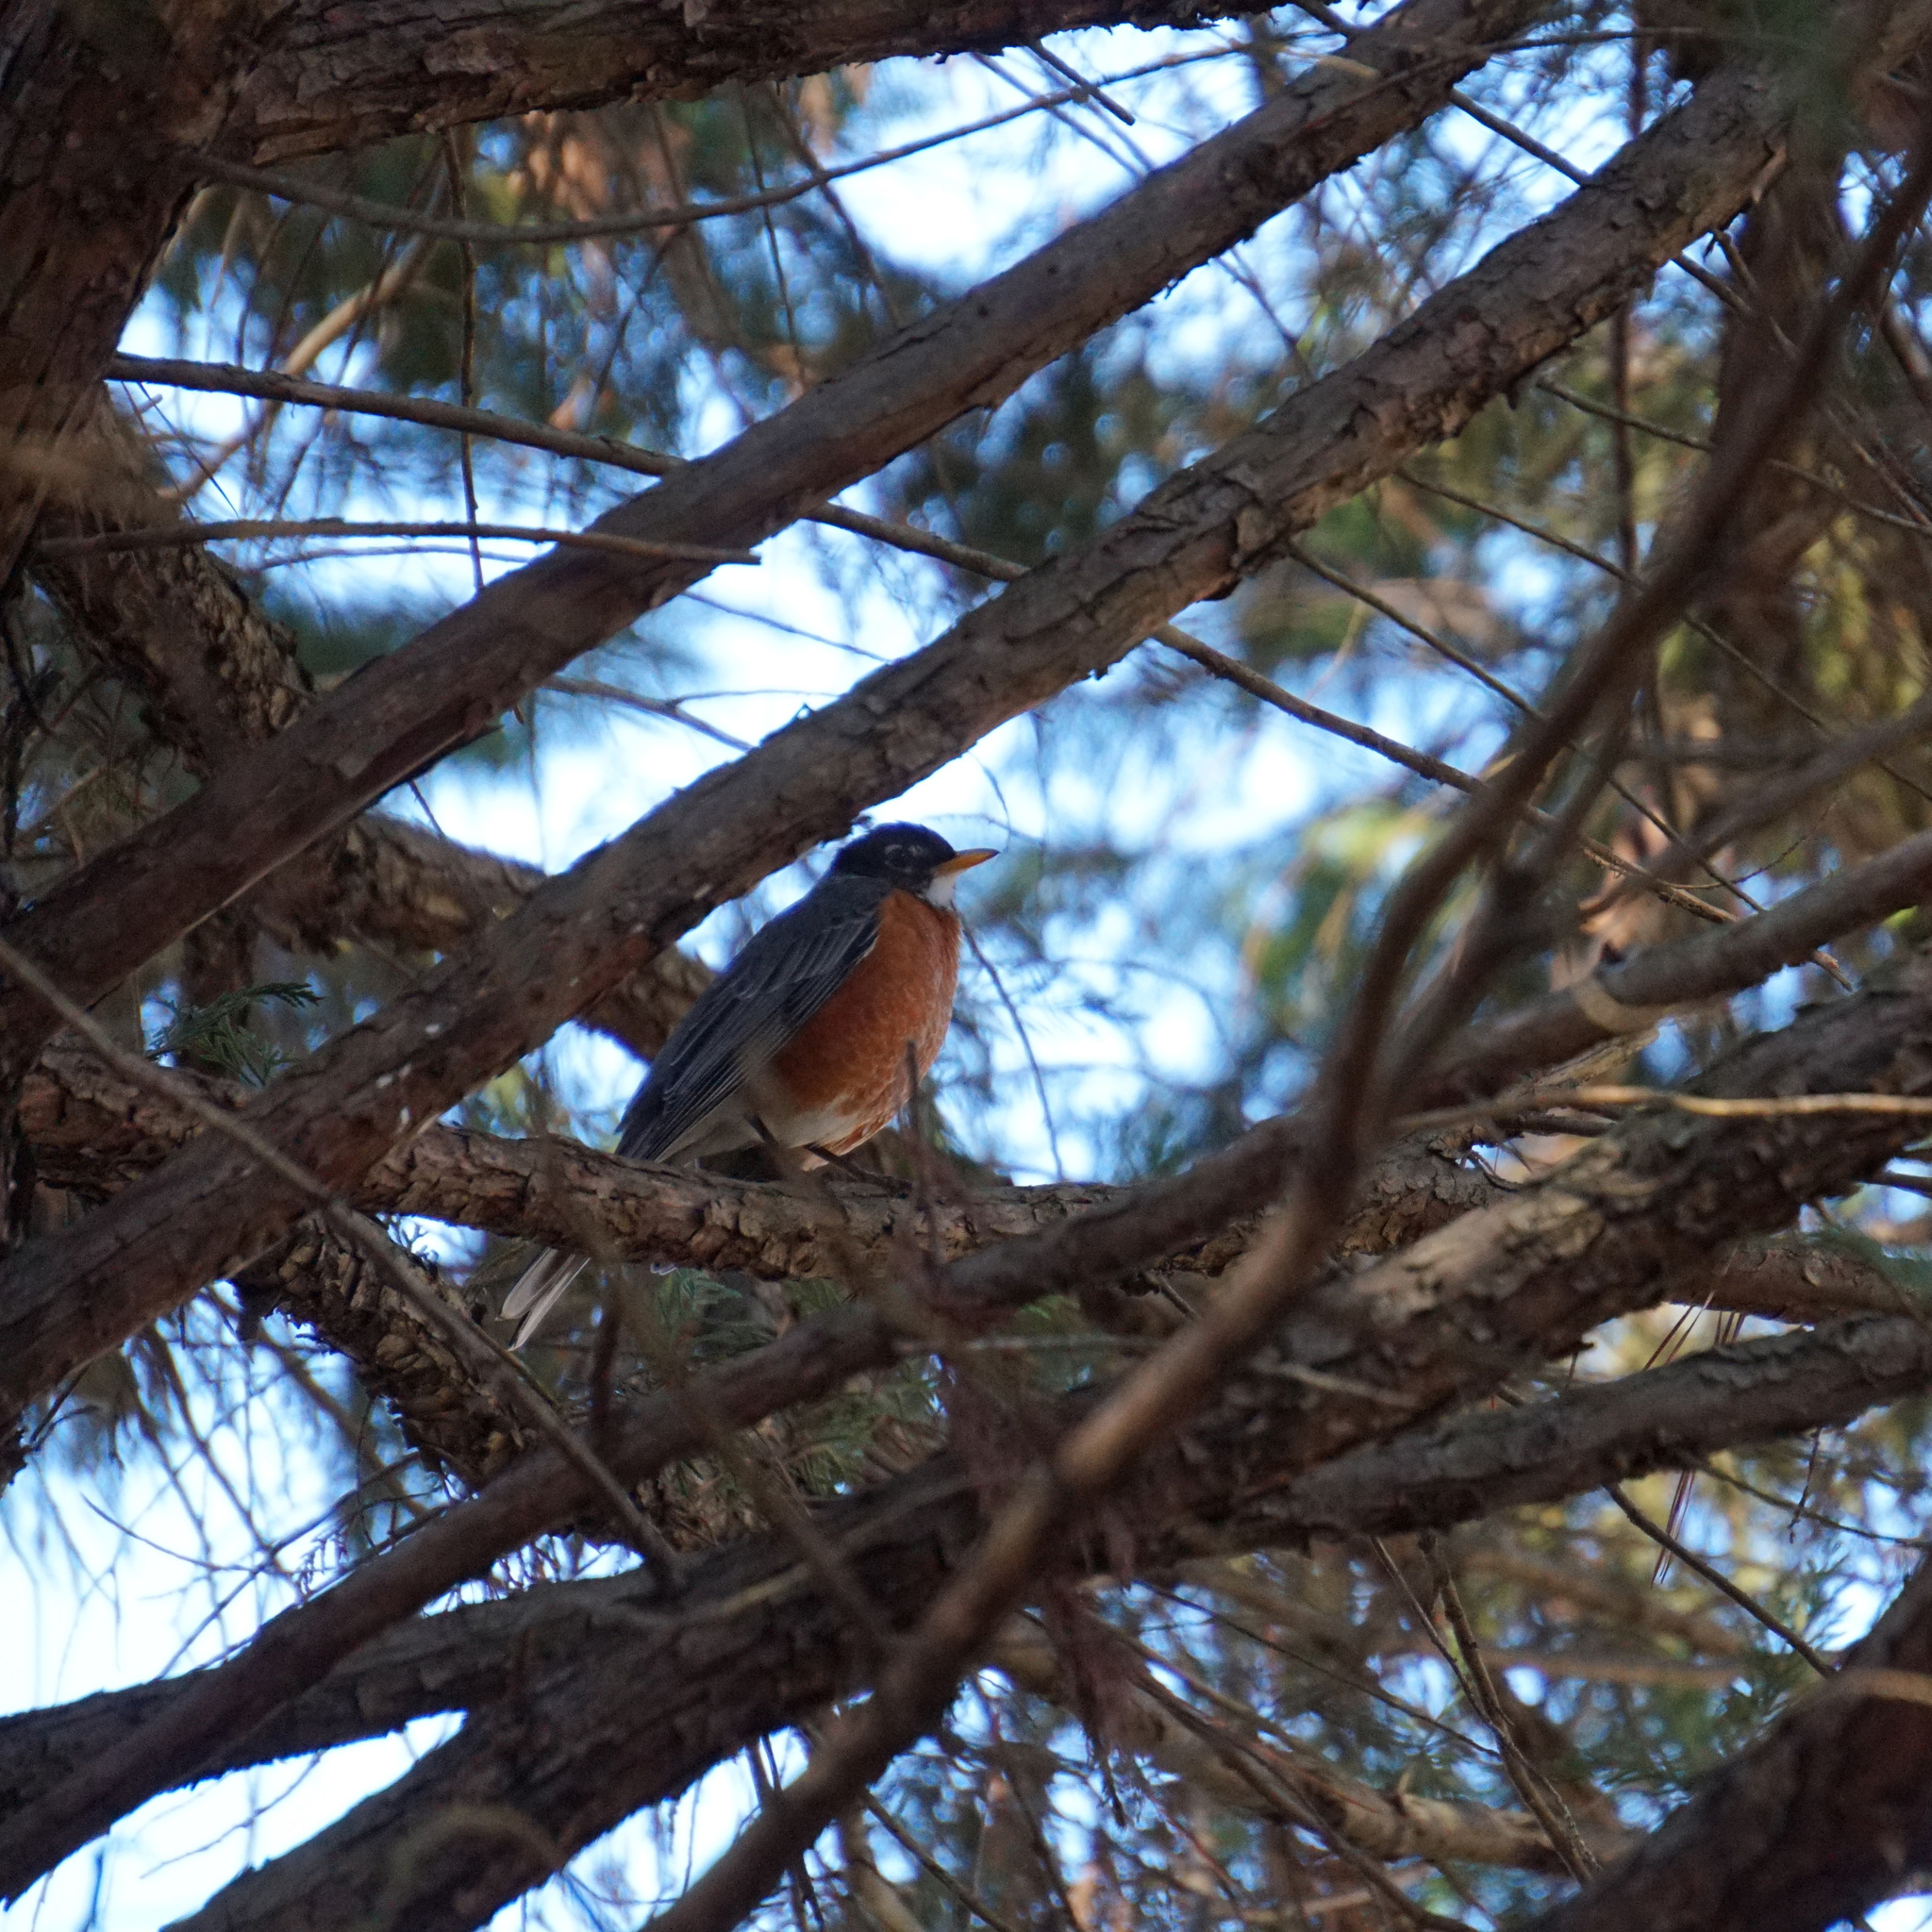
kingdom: Animalia
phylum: Chordata
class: Aves
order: Passeriformes
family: Turdidae
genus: Turdus
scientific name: Turdus migratorius
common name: American robin
